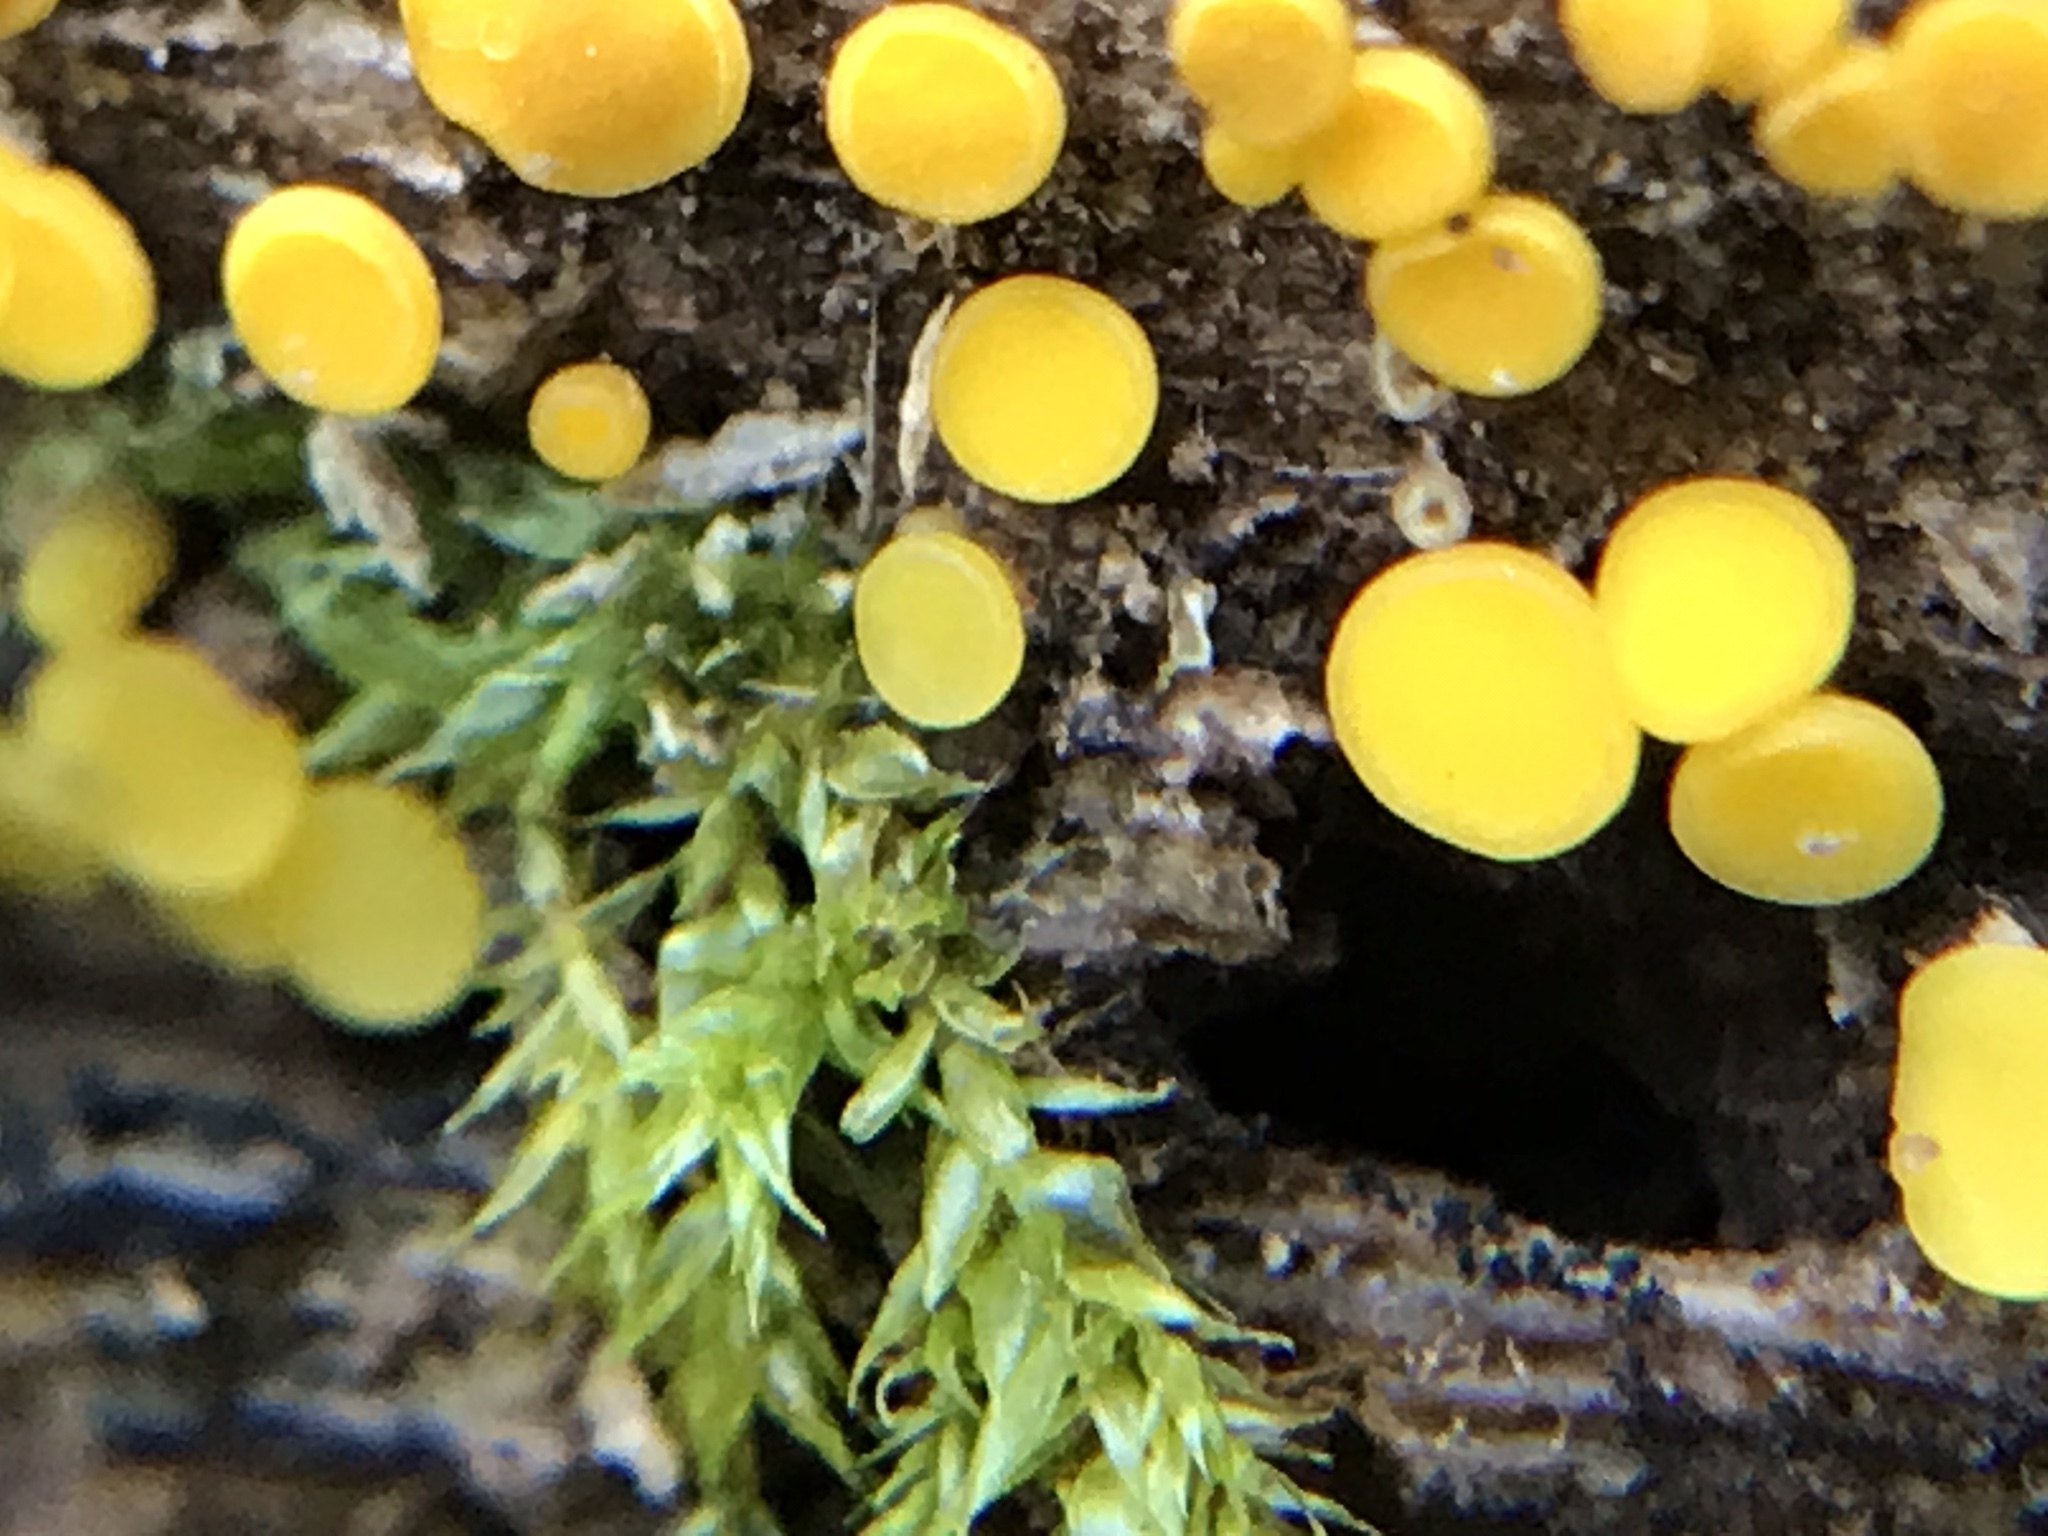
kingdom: Fungi
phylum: Ascomycota
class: Leotiomycetes
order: Helotiales
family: Pezizellaceae
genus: Calycina
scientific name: Calycina citrina
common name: Yellow fairy cups
